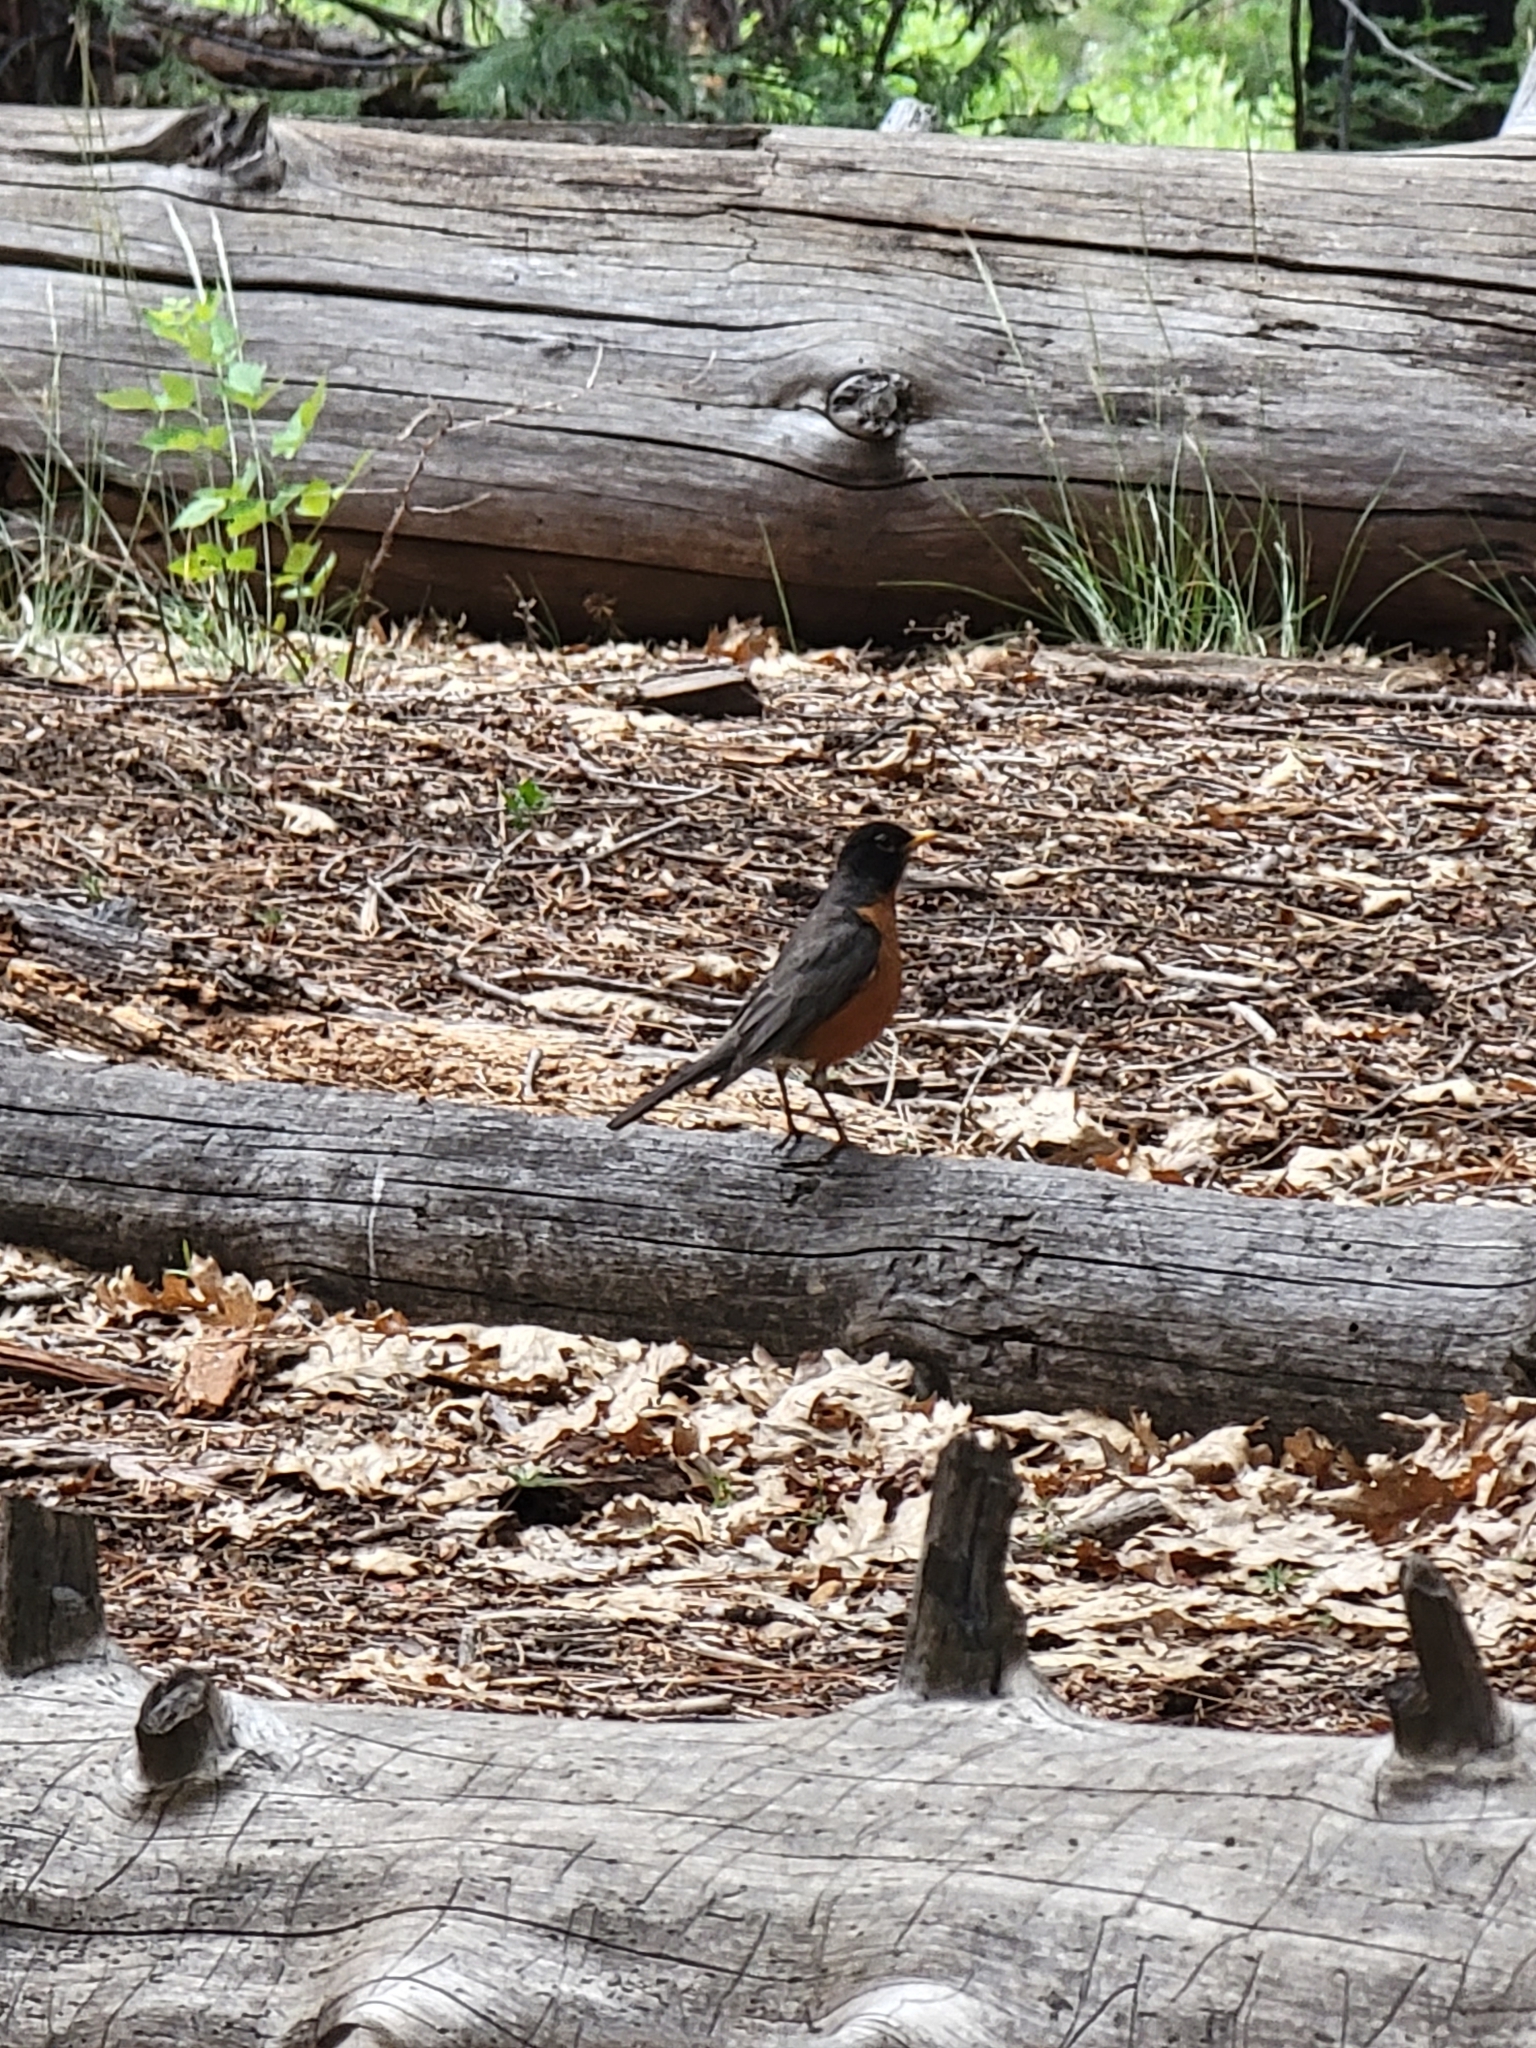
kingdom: Animalia
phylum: Chordata
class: Aves
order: Passeriformes
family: Turdidae
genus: Turdus
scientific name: Turdus migratorius
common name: American robin
